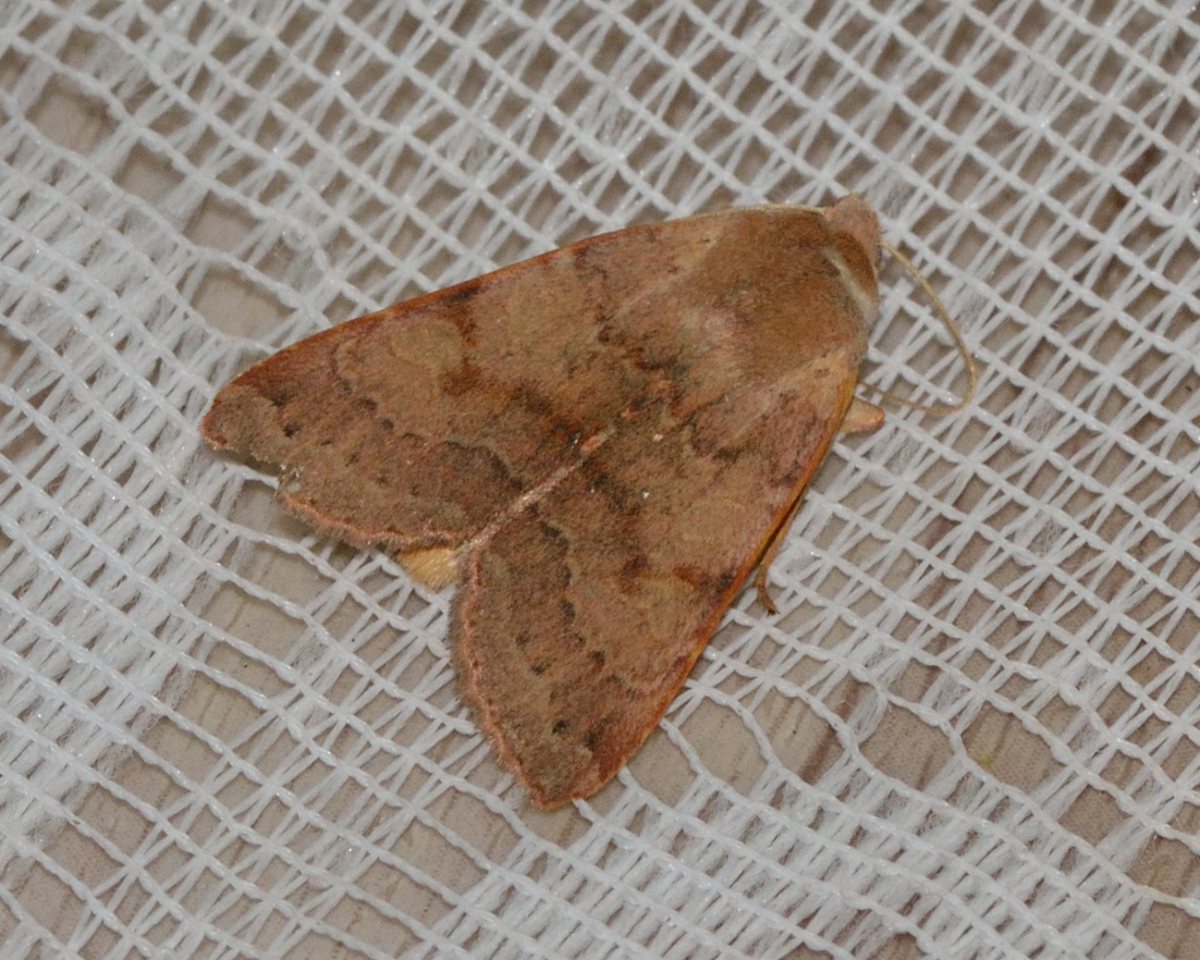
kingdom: Animalia
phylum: Arthropoda
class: Insecta
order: Lepidoptera
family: Noctuidae
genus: Agrochola
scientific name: Agrochola helvola
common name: Flounced chestnut
